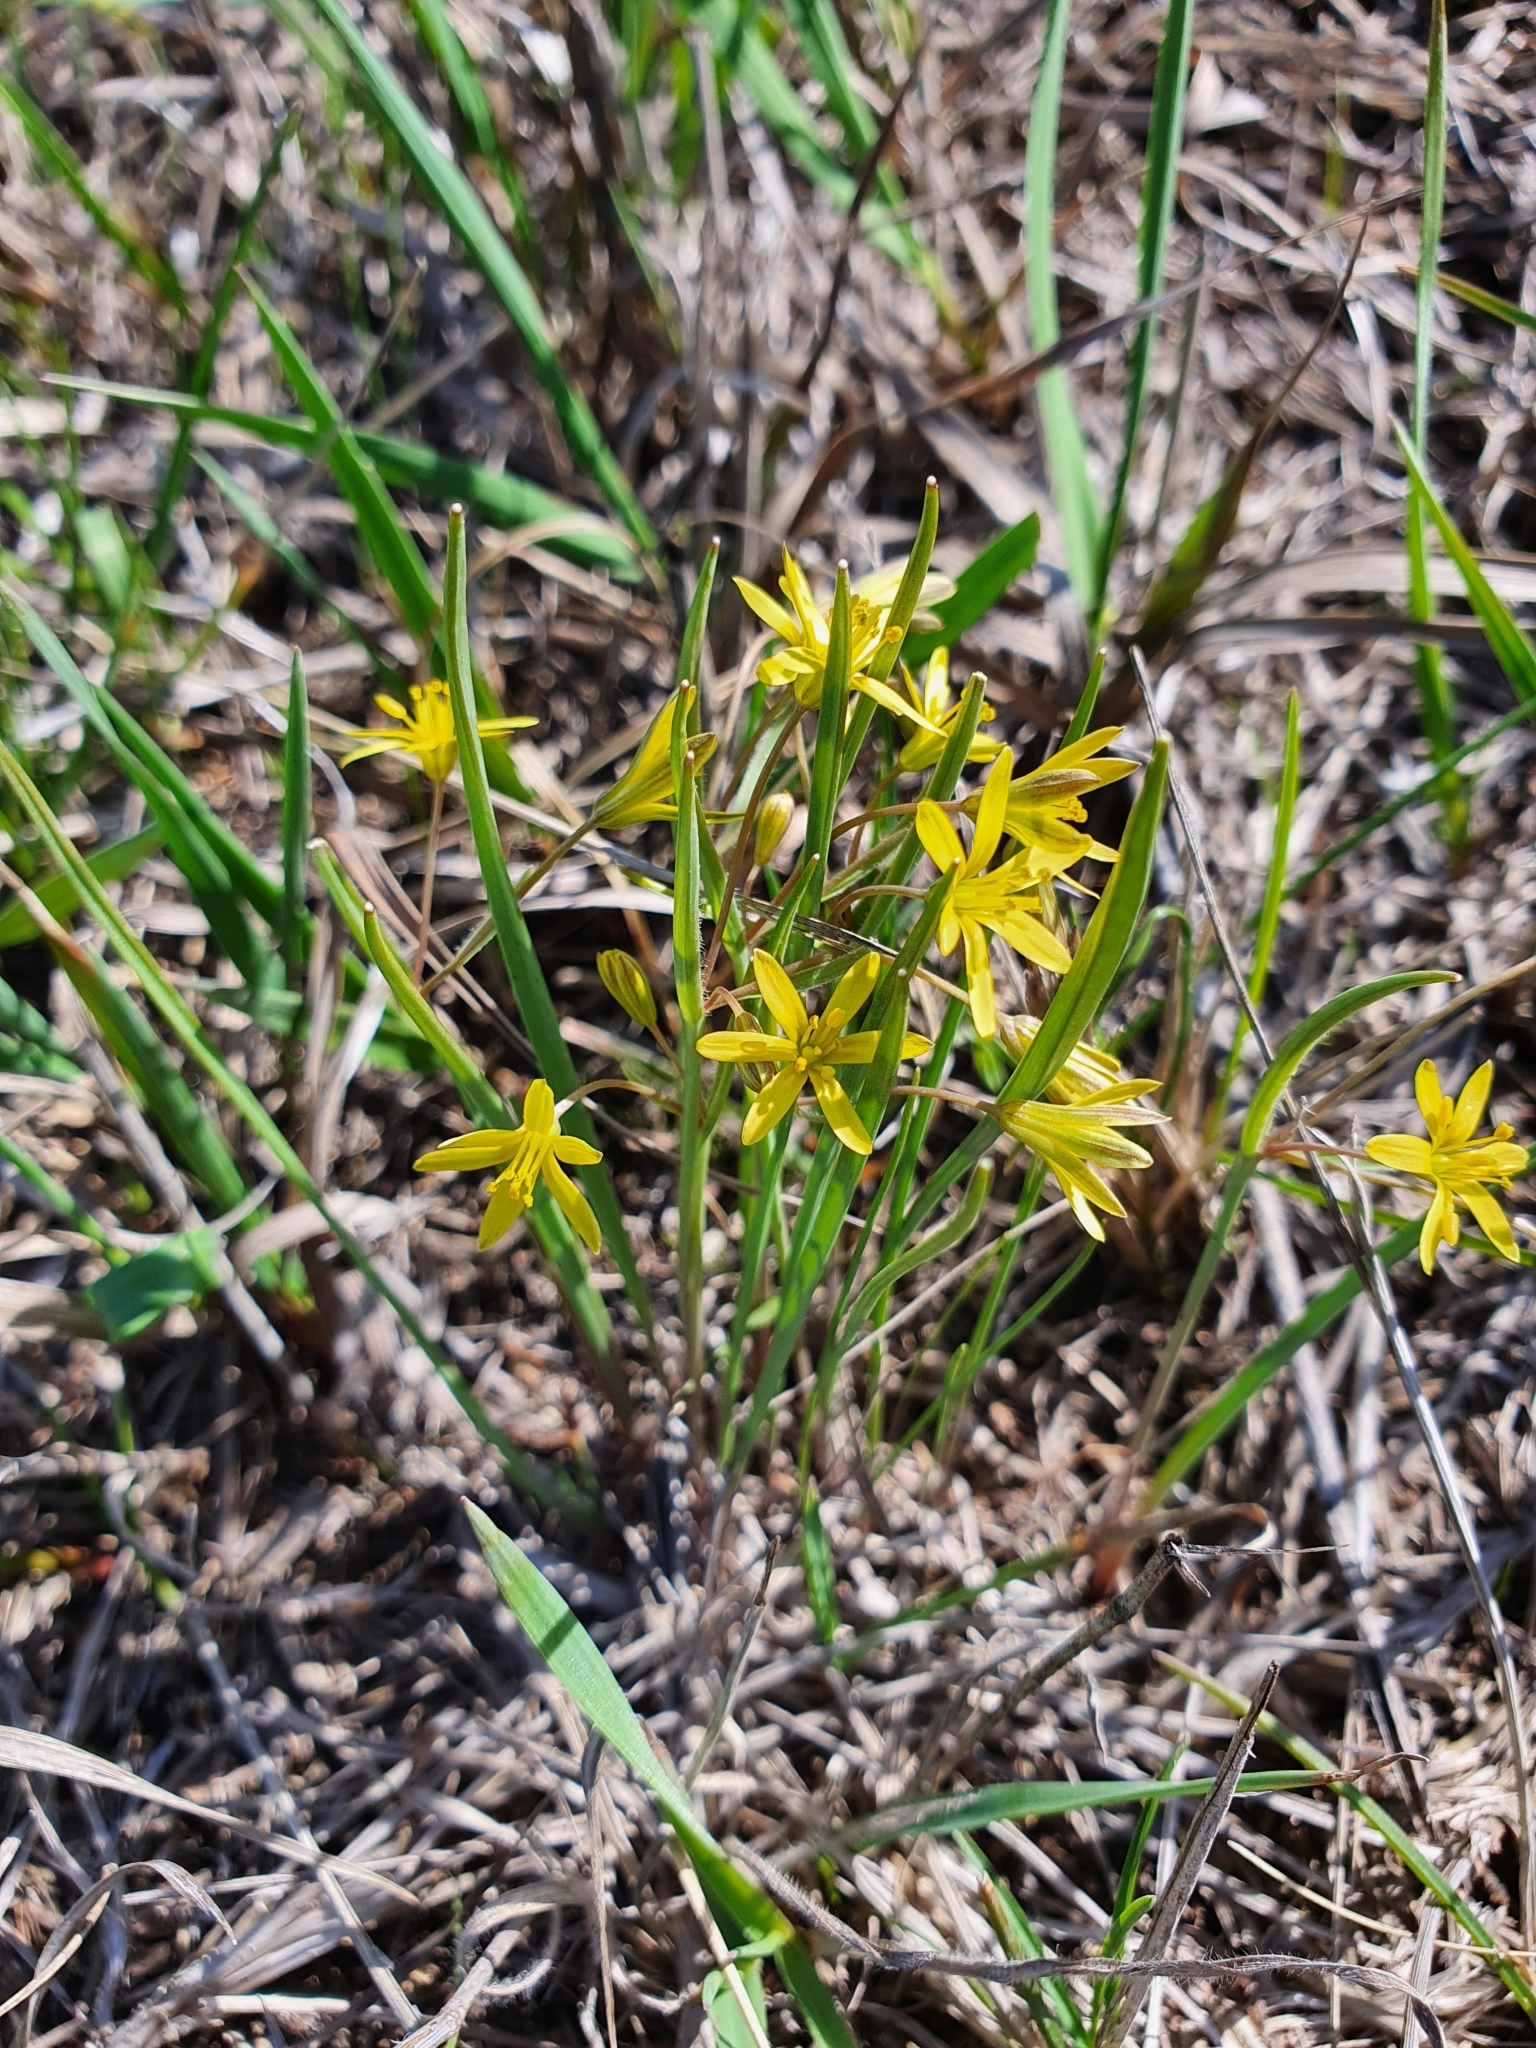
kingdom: Plantae
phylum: Tracheophyta
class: Liliopsida
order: Liliales
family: Liliaceae
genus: Gagea
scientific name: Gagea fragifera
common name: Lily
